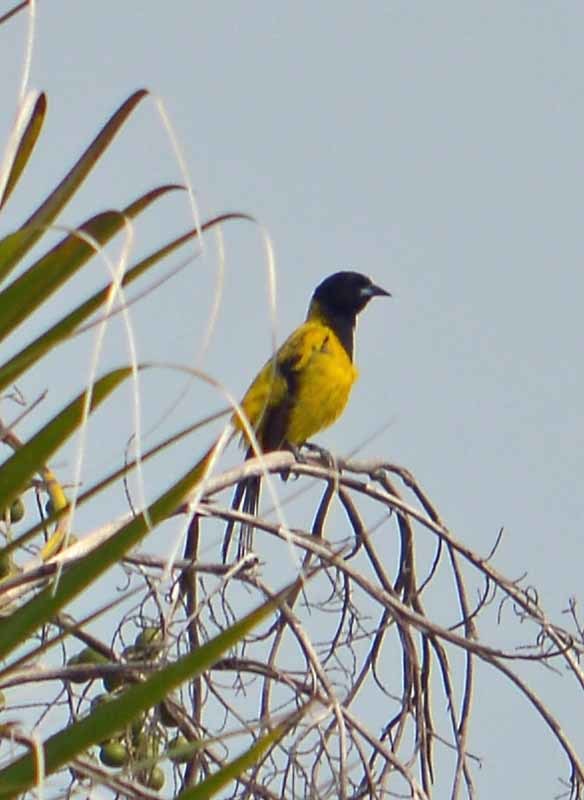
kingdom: Animalia
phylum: Chordata
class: Aves
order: Passeriformes
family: Icteridae
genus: Icterus
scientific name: Icterus prosthemelas
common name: Black-cowled oriole
